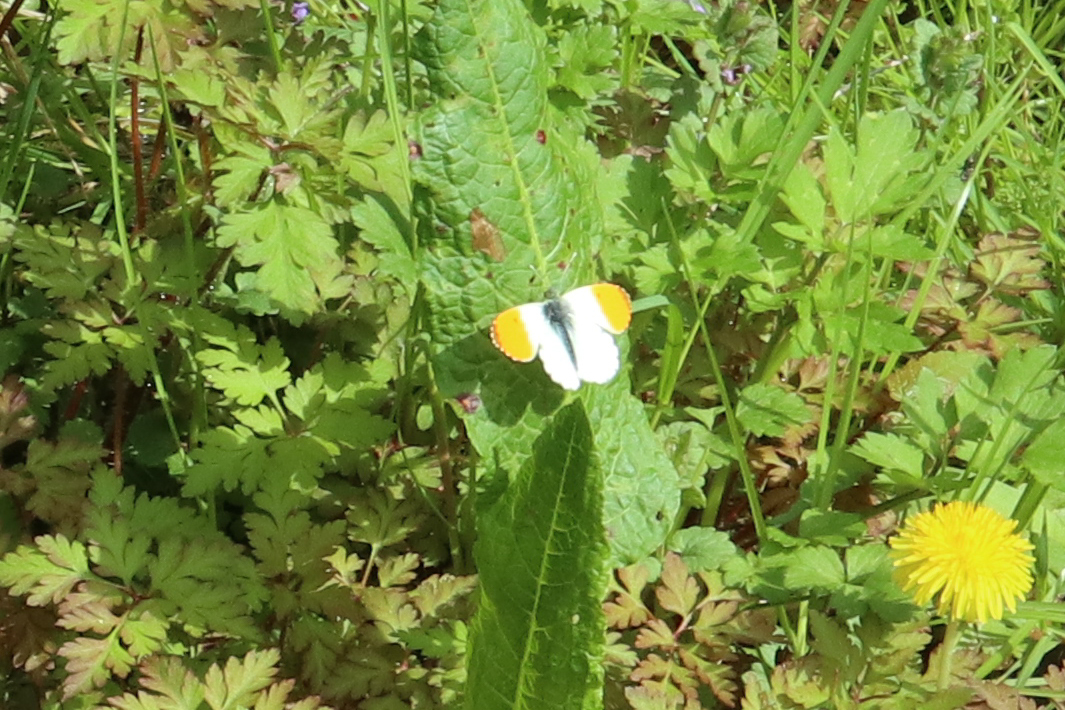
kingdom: Animalia
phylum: Arthropoda
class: Insecta
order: Lepidoptera
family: Pieridae
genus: Anthocharis
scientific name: Anthocharis cardamines
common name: Orange-tip
